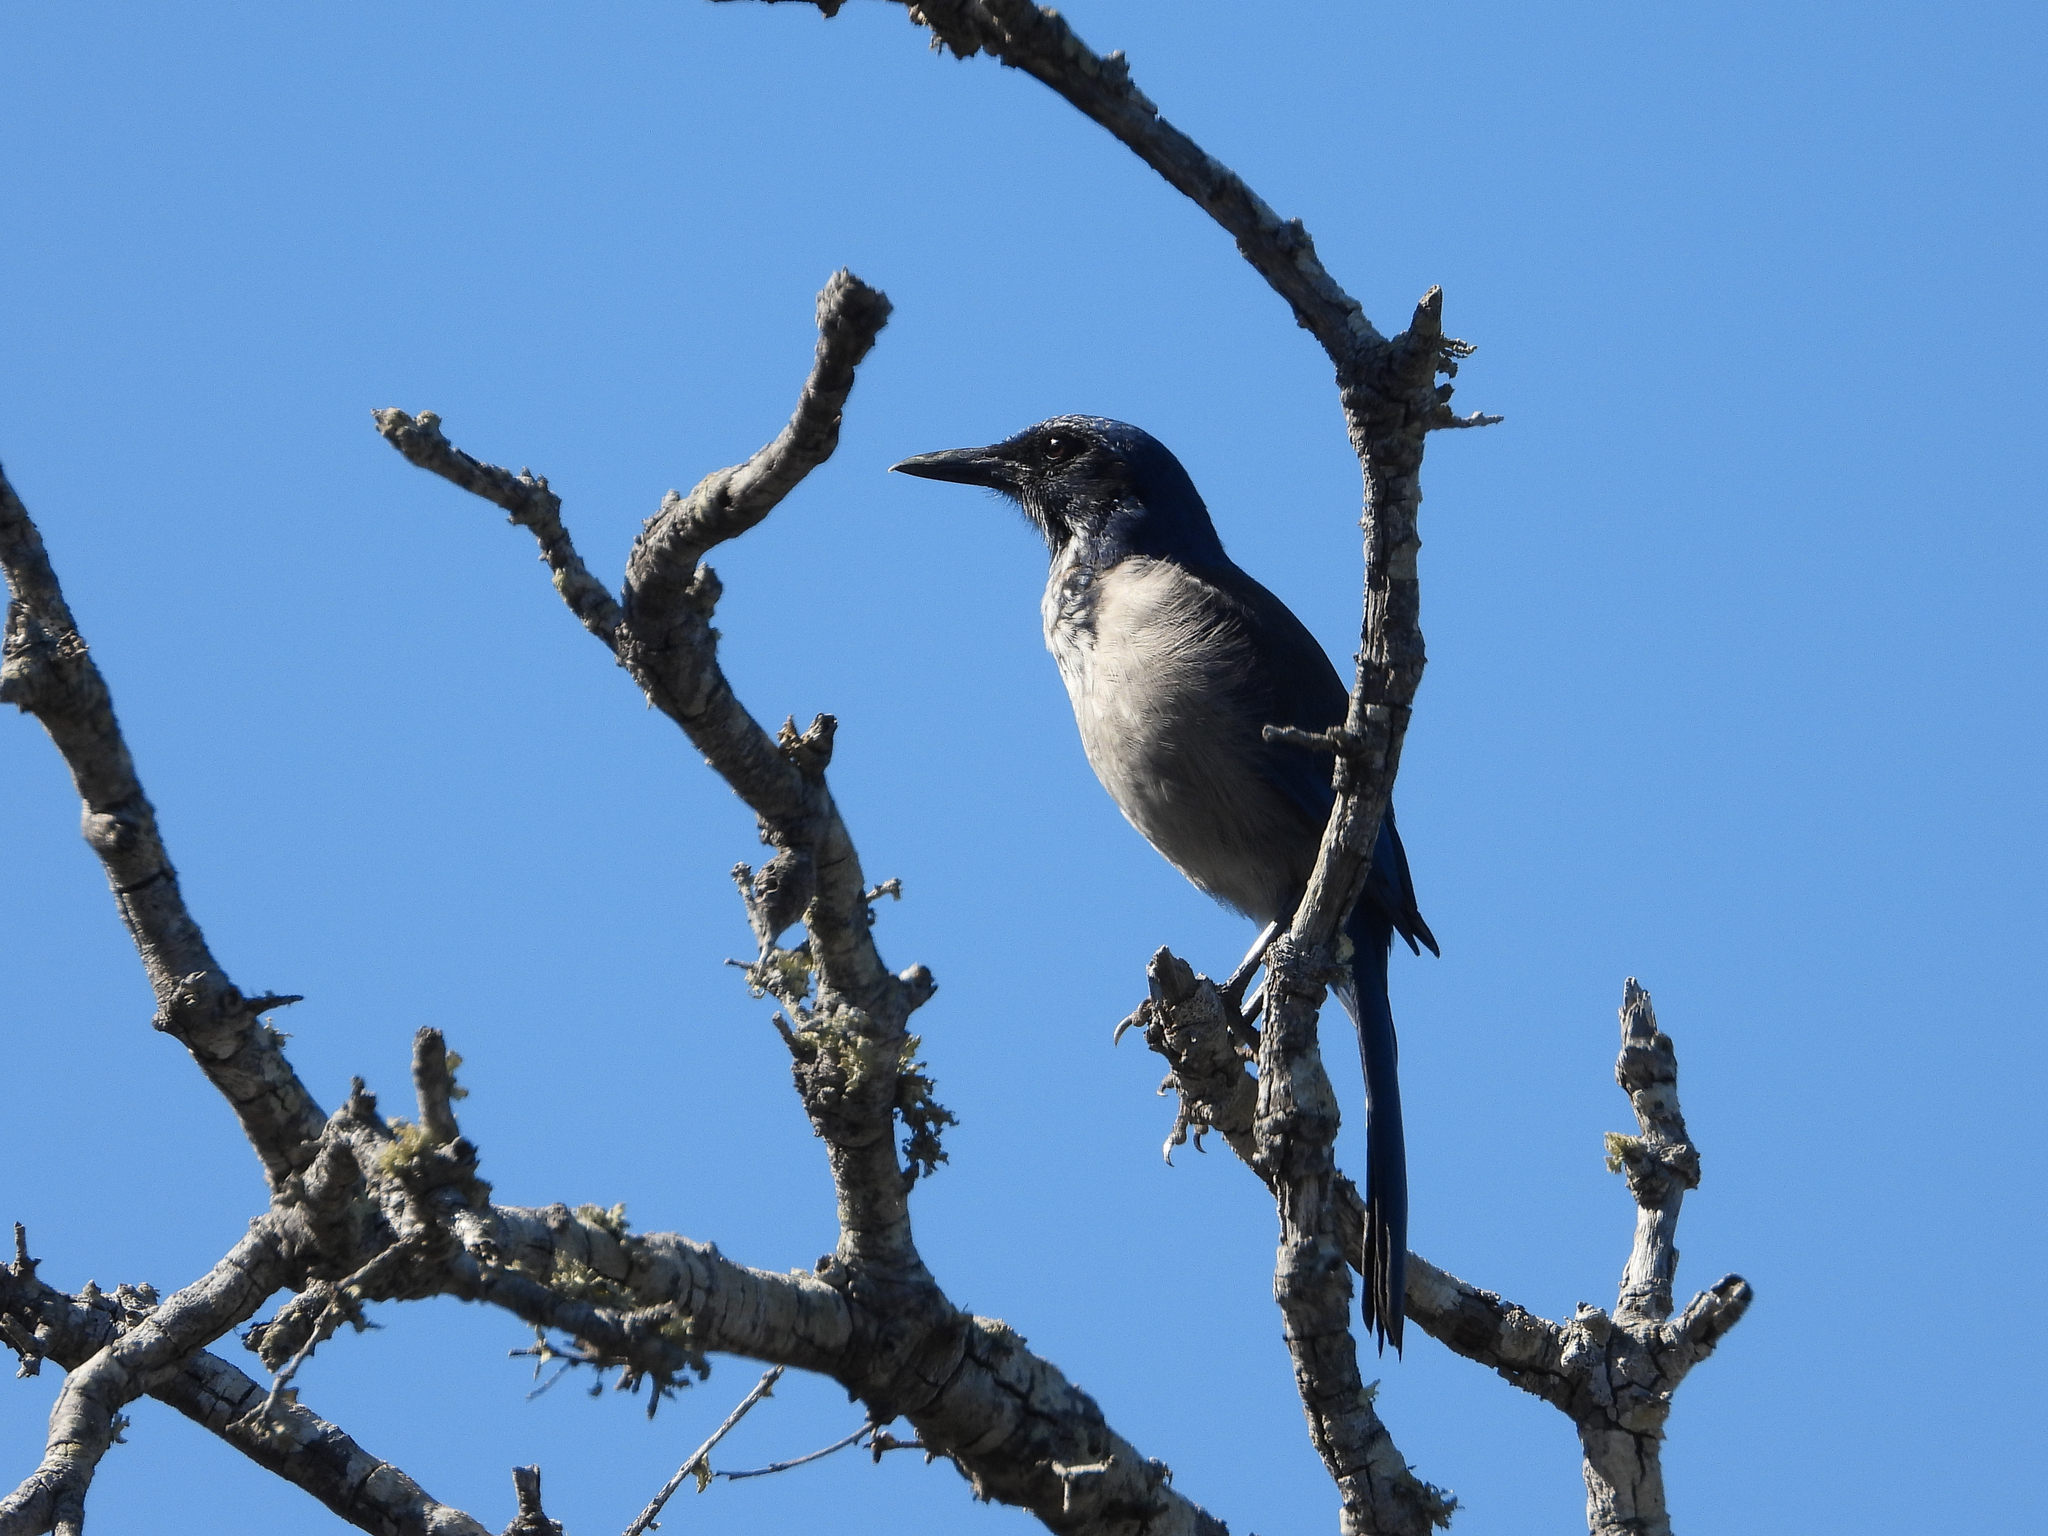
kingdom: Animalia
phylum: Chordata
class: Aves
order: Passeriformes
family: Corvidae
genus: Aphelocoma
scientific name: Aphelocoma insularis
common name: Island scrub-jay
